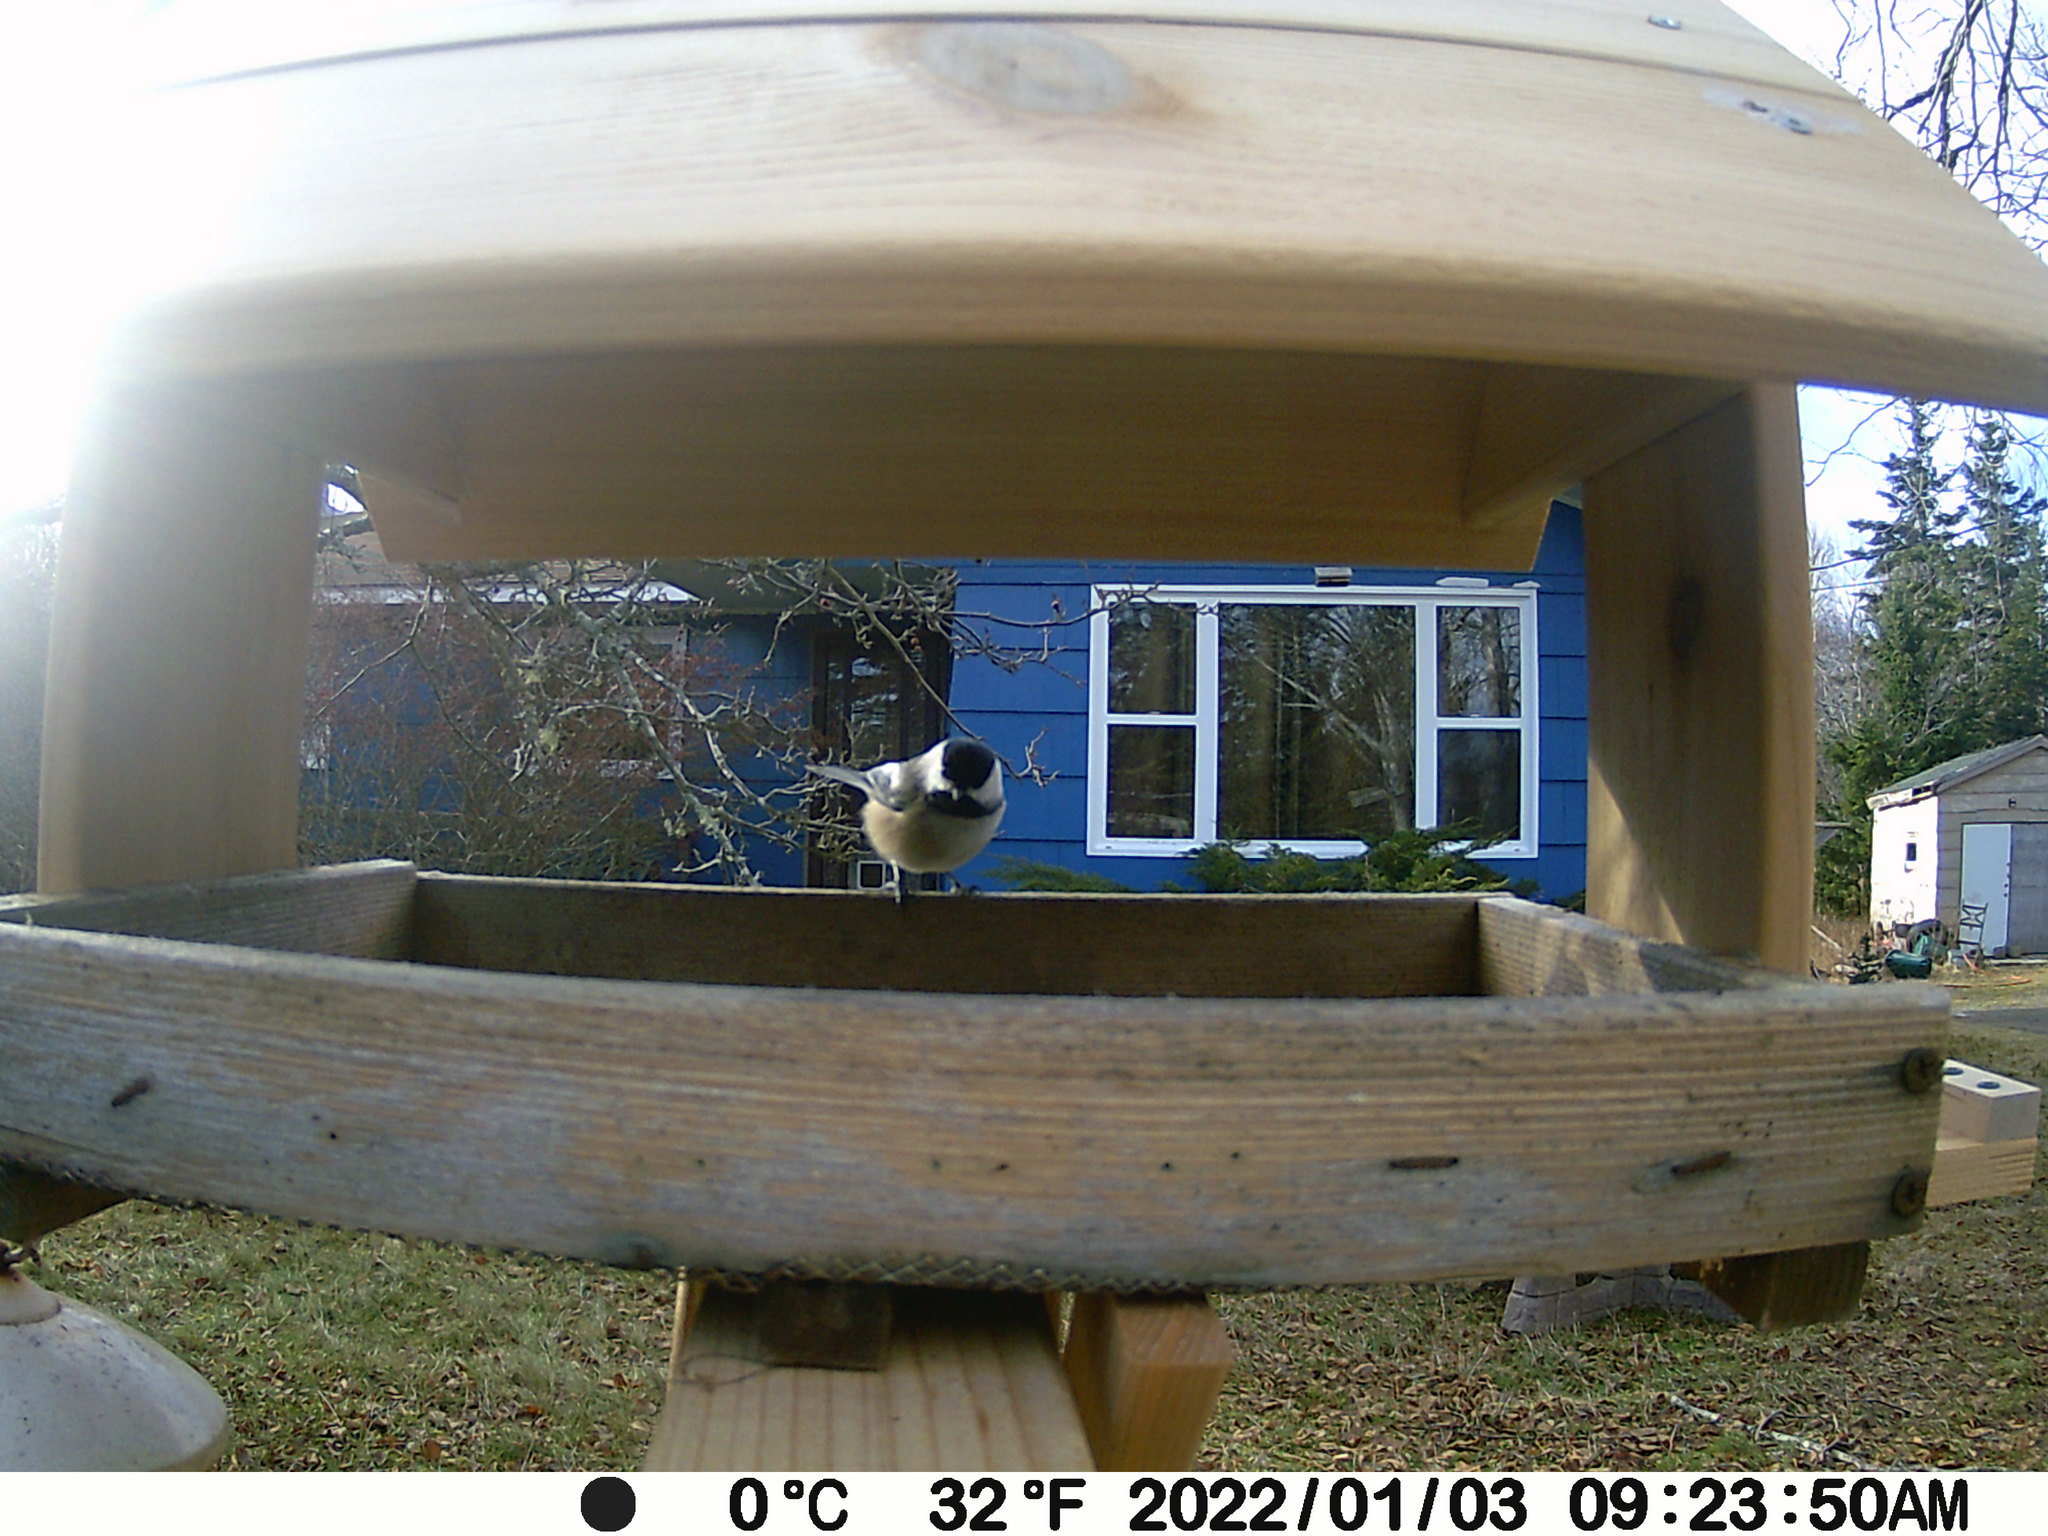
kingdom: Animalia
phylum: Chordata
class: Aves
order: Passeriformes
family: Paridae
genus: Poecile
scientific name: Poecile atricapillus
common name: Black-capped chickadee
